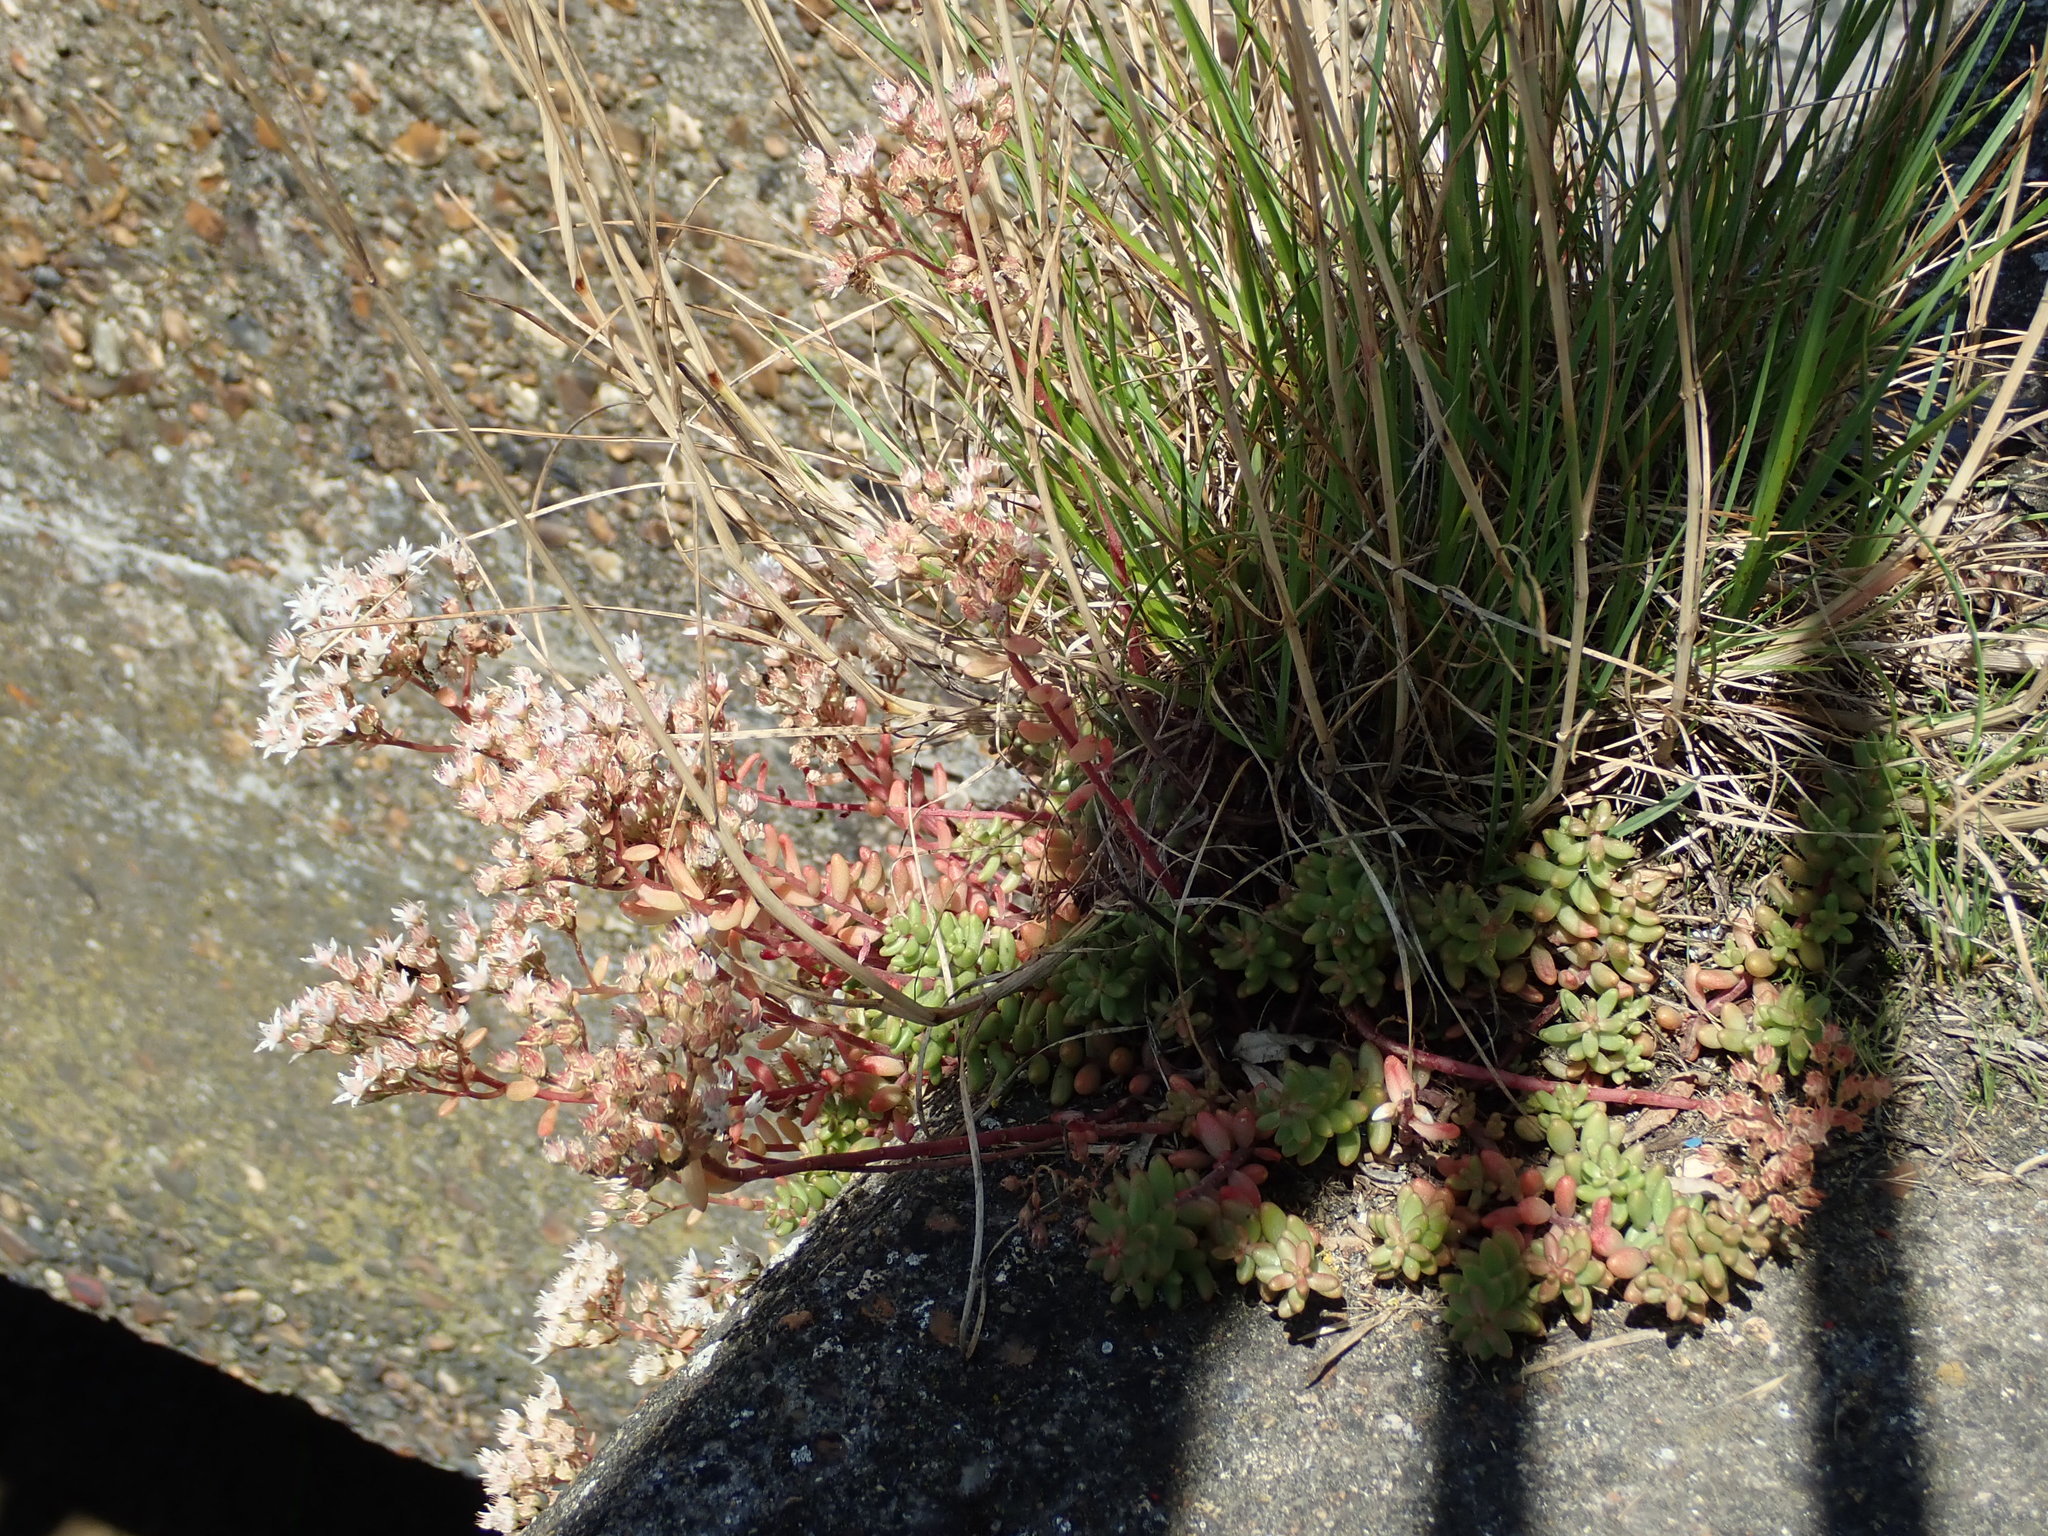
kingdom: Plantae
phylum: Tracheophyta
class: Magnoliopsida
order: Saxifragales
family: Crassulaceae
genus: Sedum
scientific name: Sedum album
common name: White stonecrop
